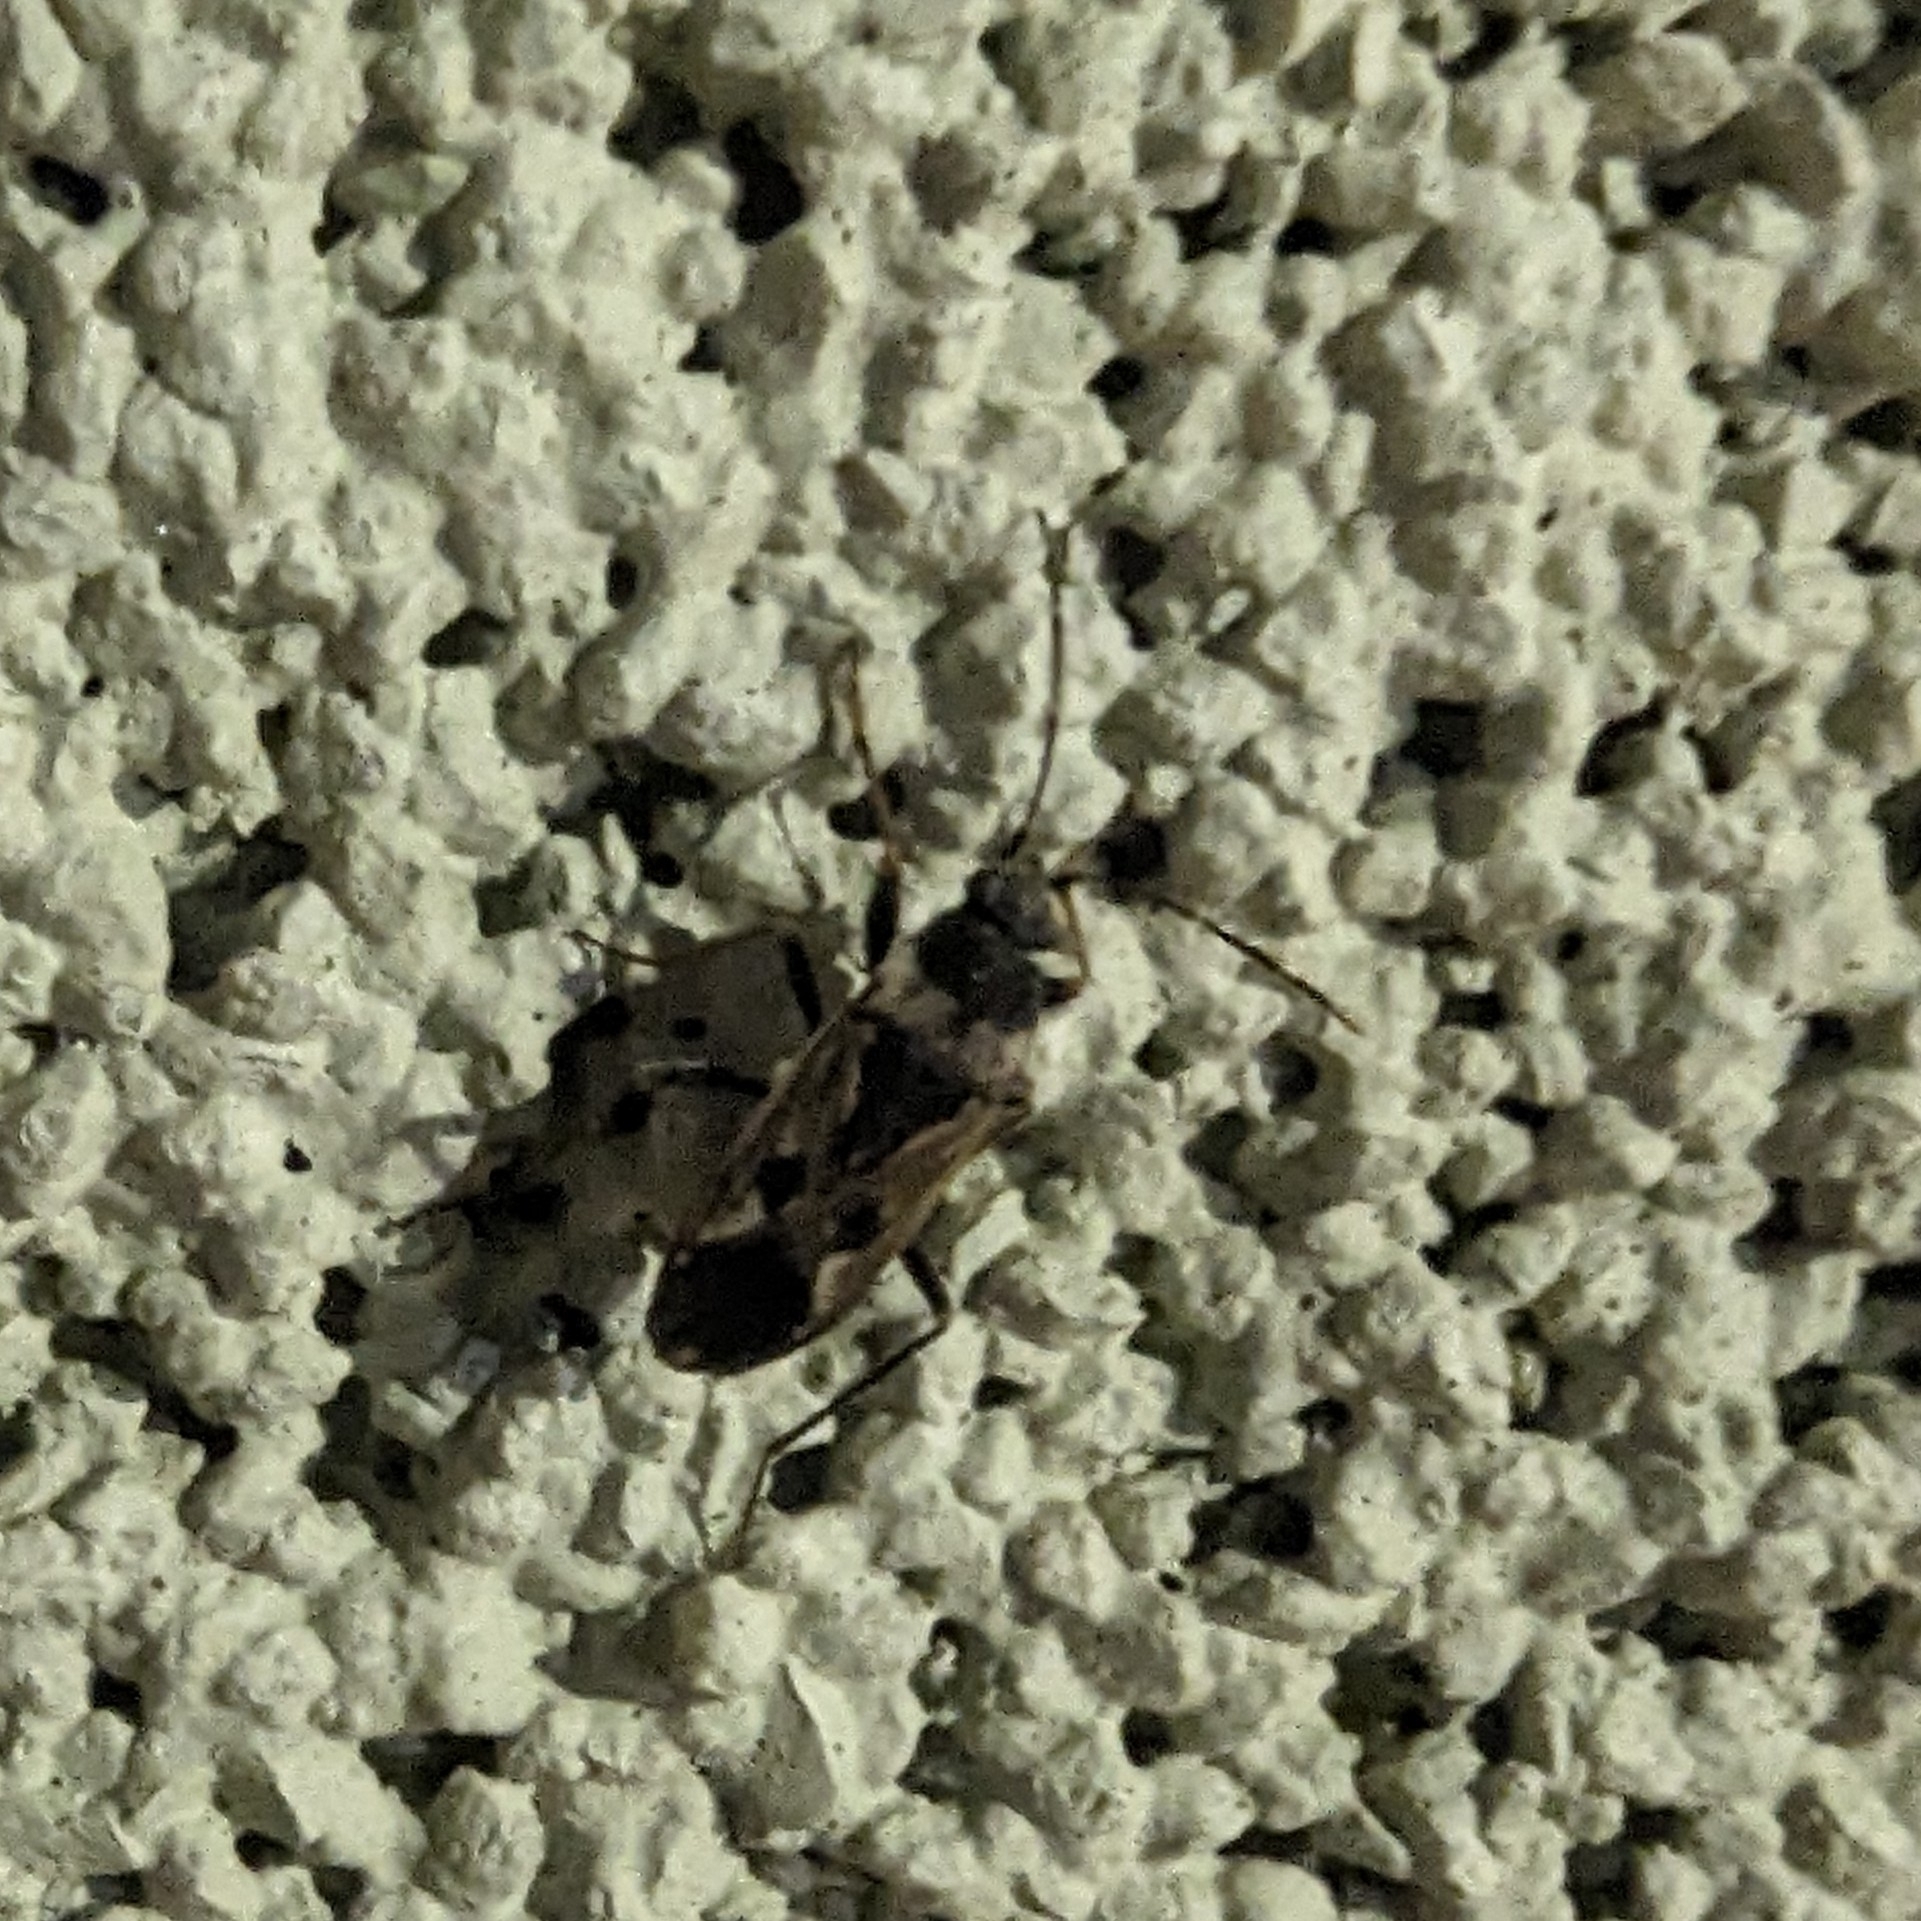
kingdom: Animalia
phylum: Arthropoda
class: Insecta
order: Hemiptera
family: Rhyparochromidae
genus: Rhyparochromus
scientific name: Rhyparochromus vulgaris
